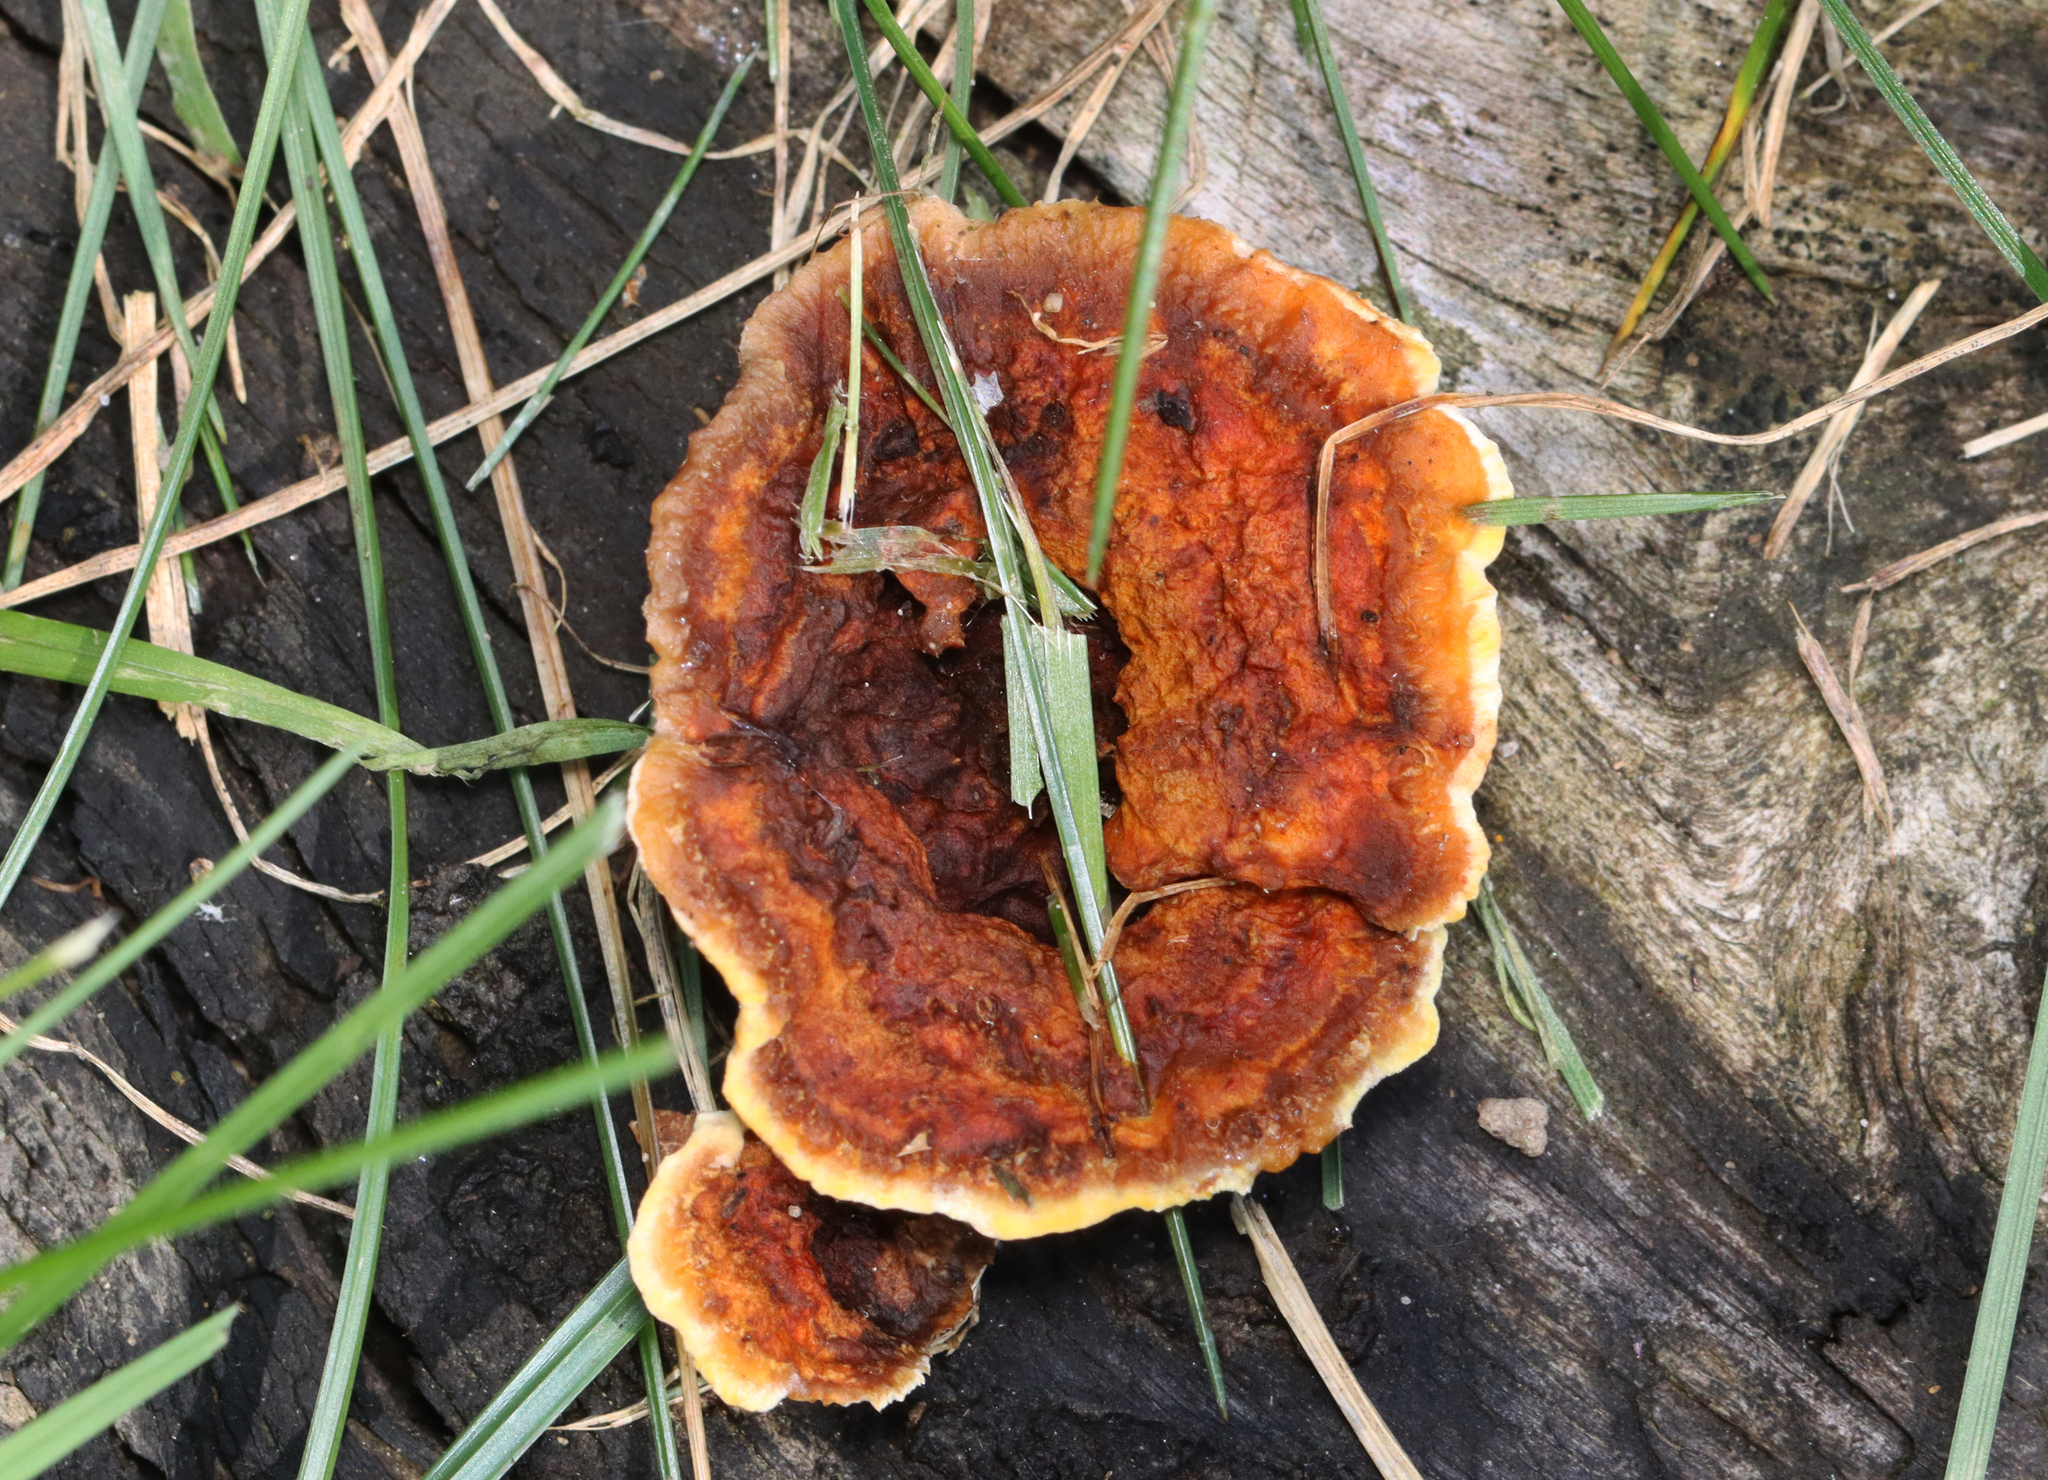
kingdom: Fungi
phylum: Basidiomycota
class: Agaricomycetes
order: Gloeophyllales
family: Gloeophyllaceae
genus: Gloeophyllum
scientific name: Gloeophyllum sepiarium
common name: Conifer mazegill
